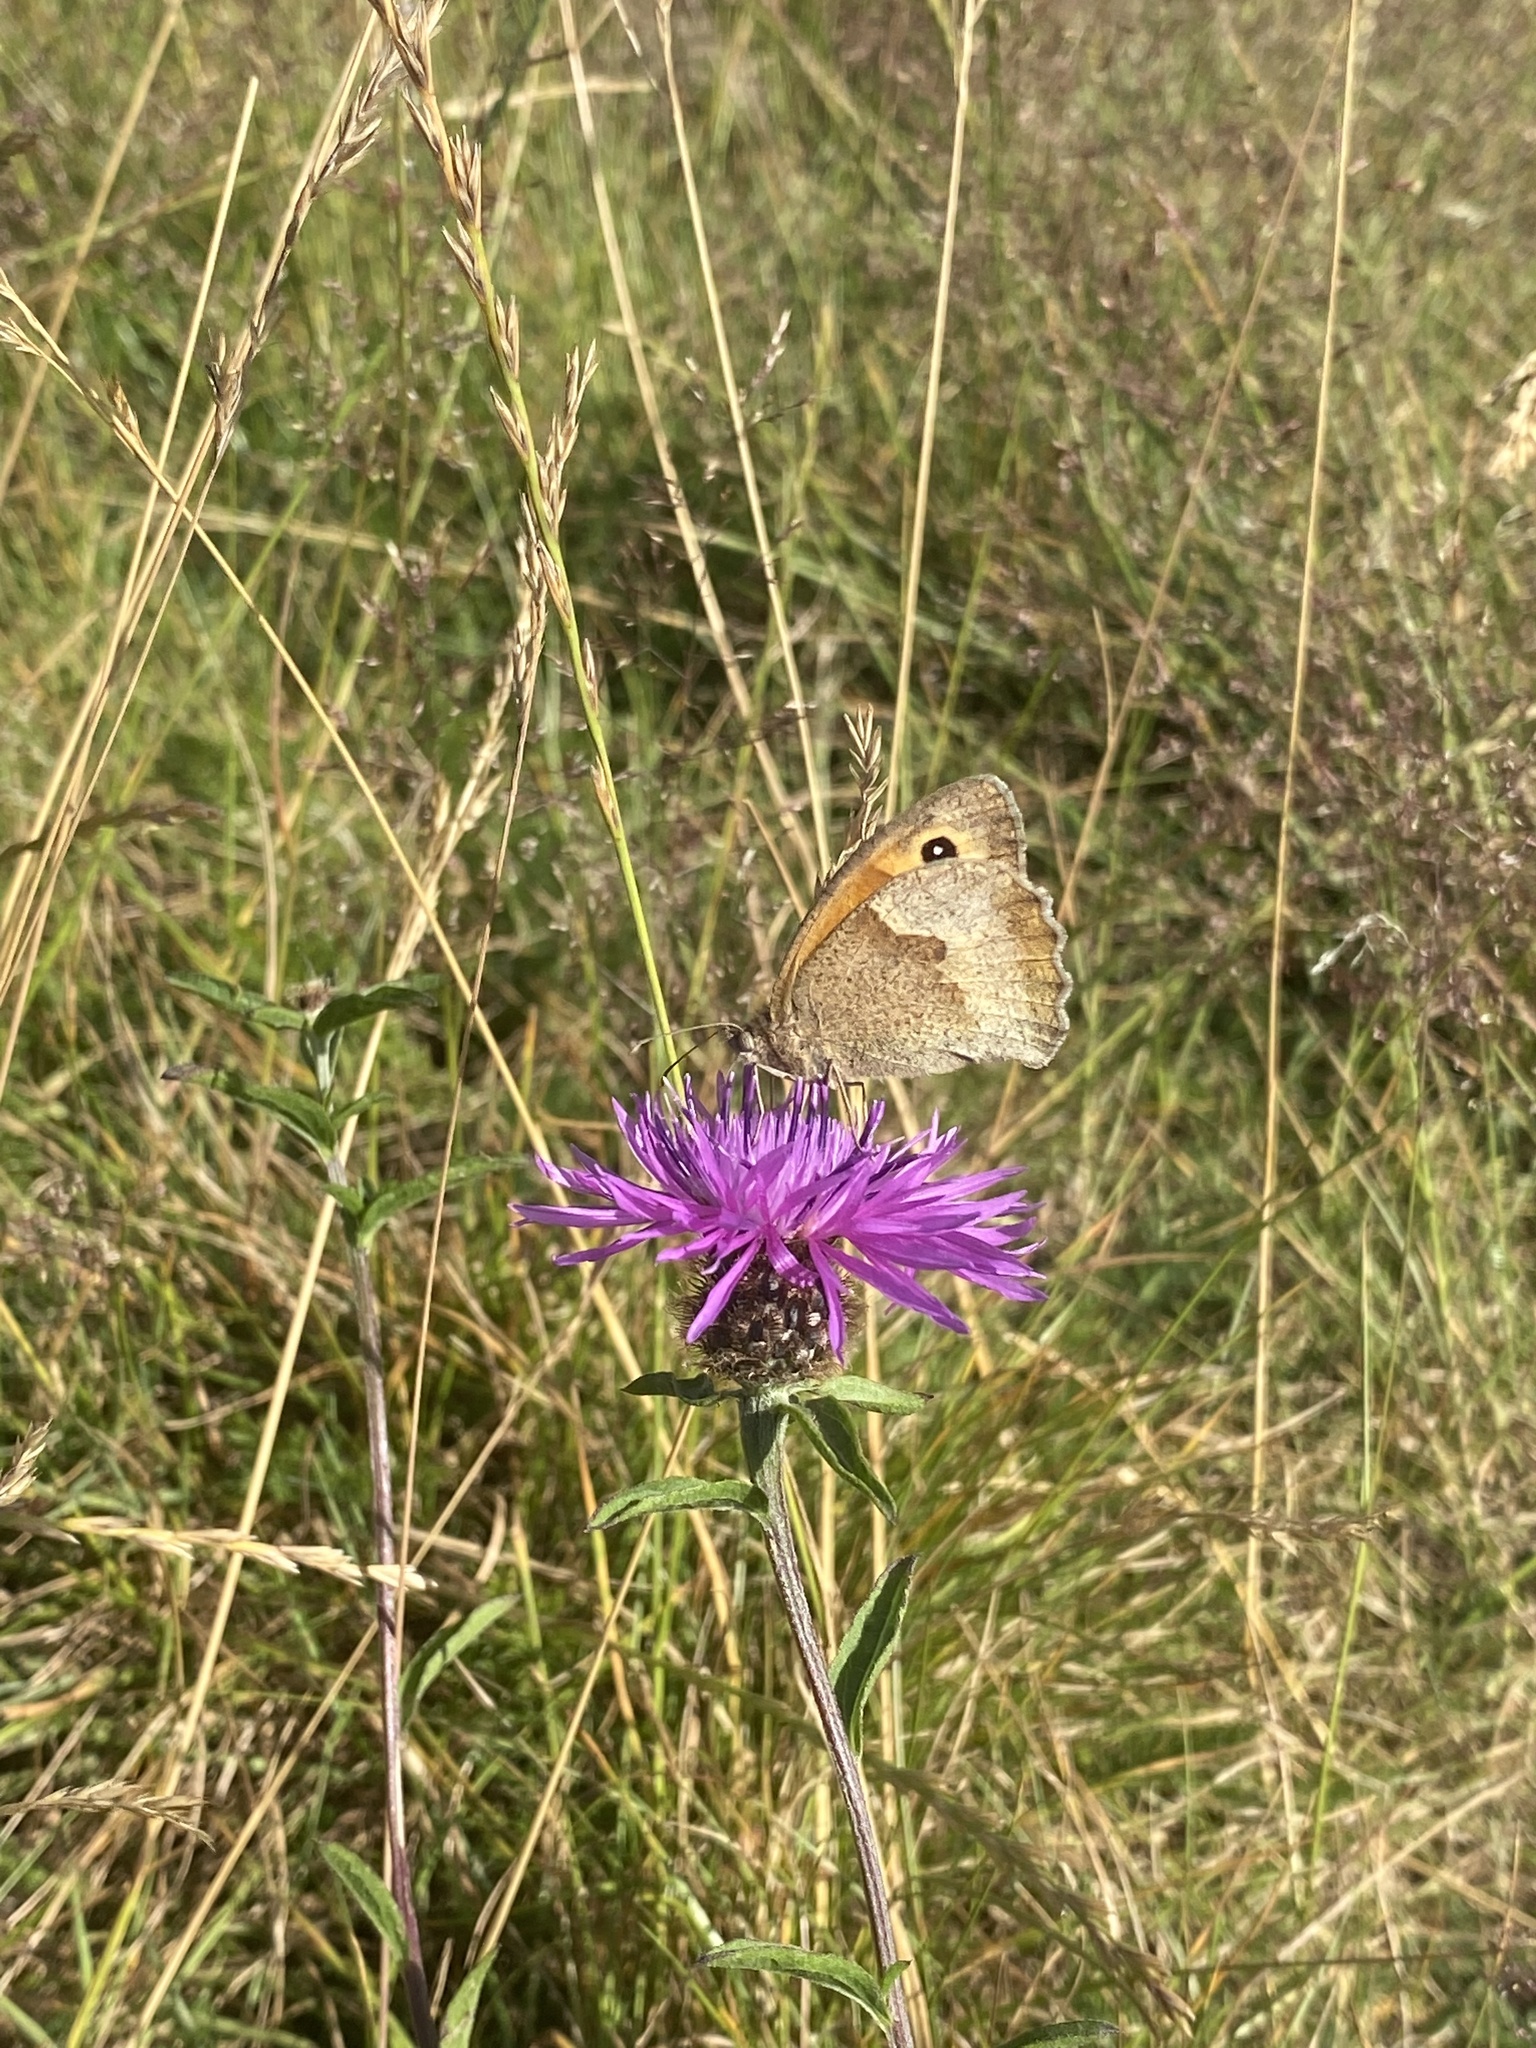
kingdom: Animalia
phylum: Arthropoda
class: Insecta
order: Lepidoptera
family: Nymphalidae
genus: Maniola
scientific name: Maniola jurtina
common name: Meadow brown
